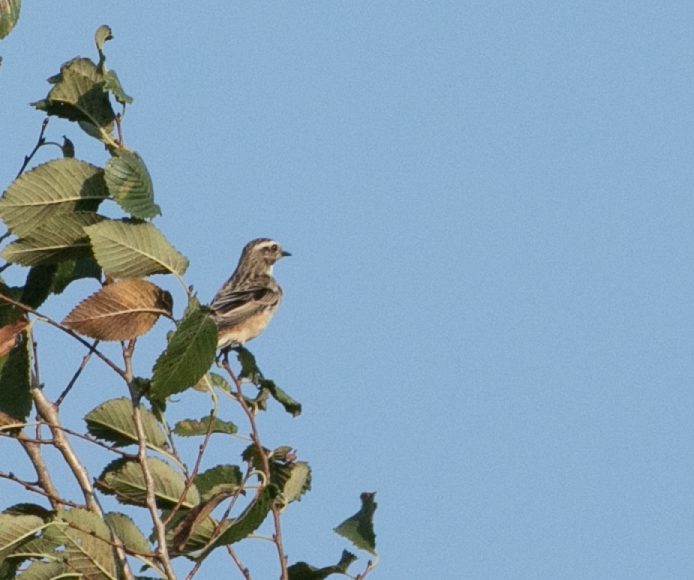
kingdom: Animalia
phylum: Chordata
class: Aves
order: Passeriformes
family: Muscicapidae
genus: Saxicola
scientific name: Saxicola rubetra
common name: Whinchat
